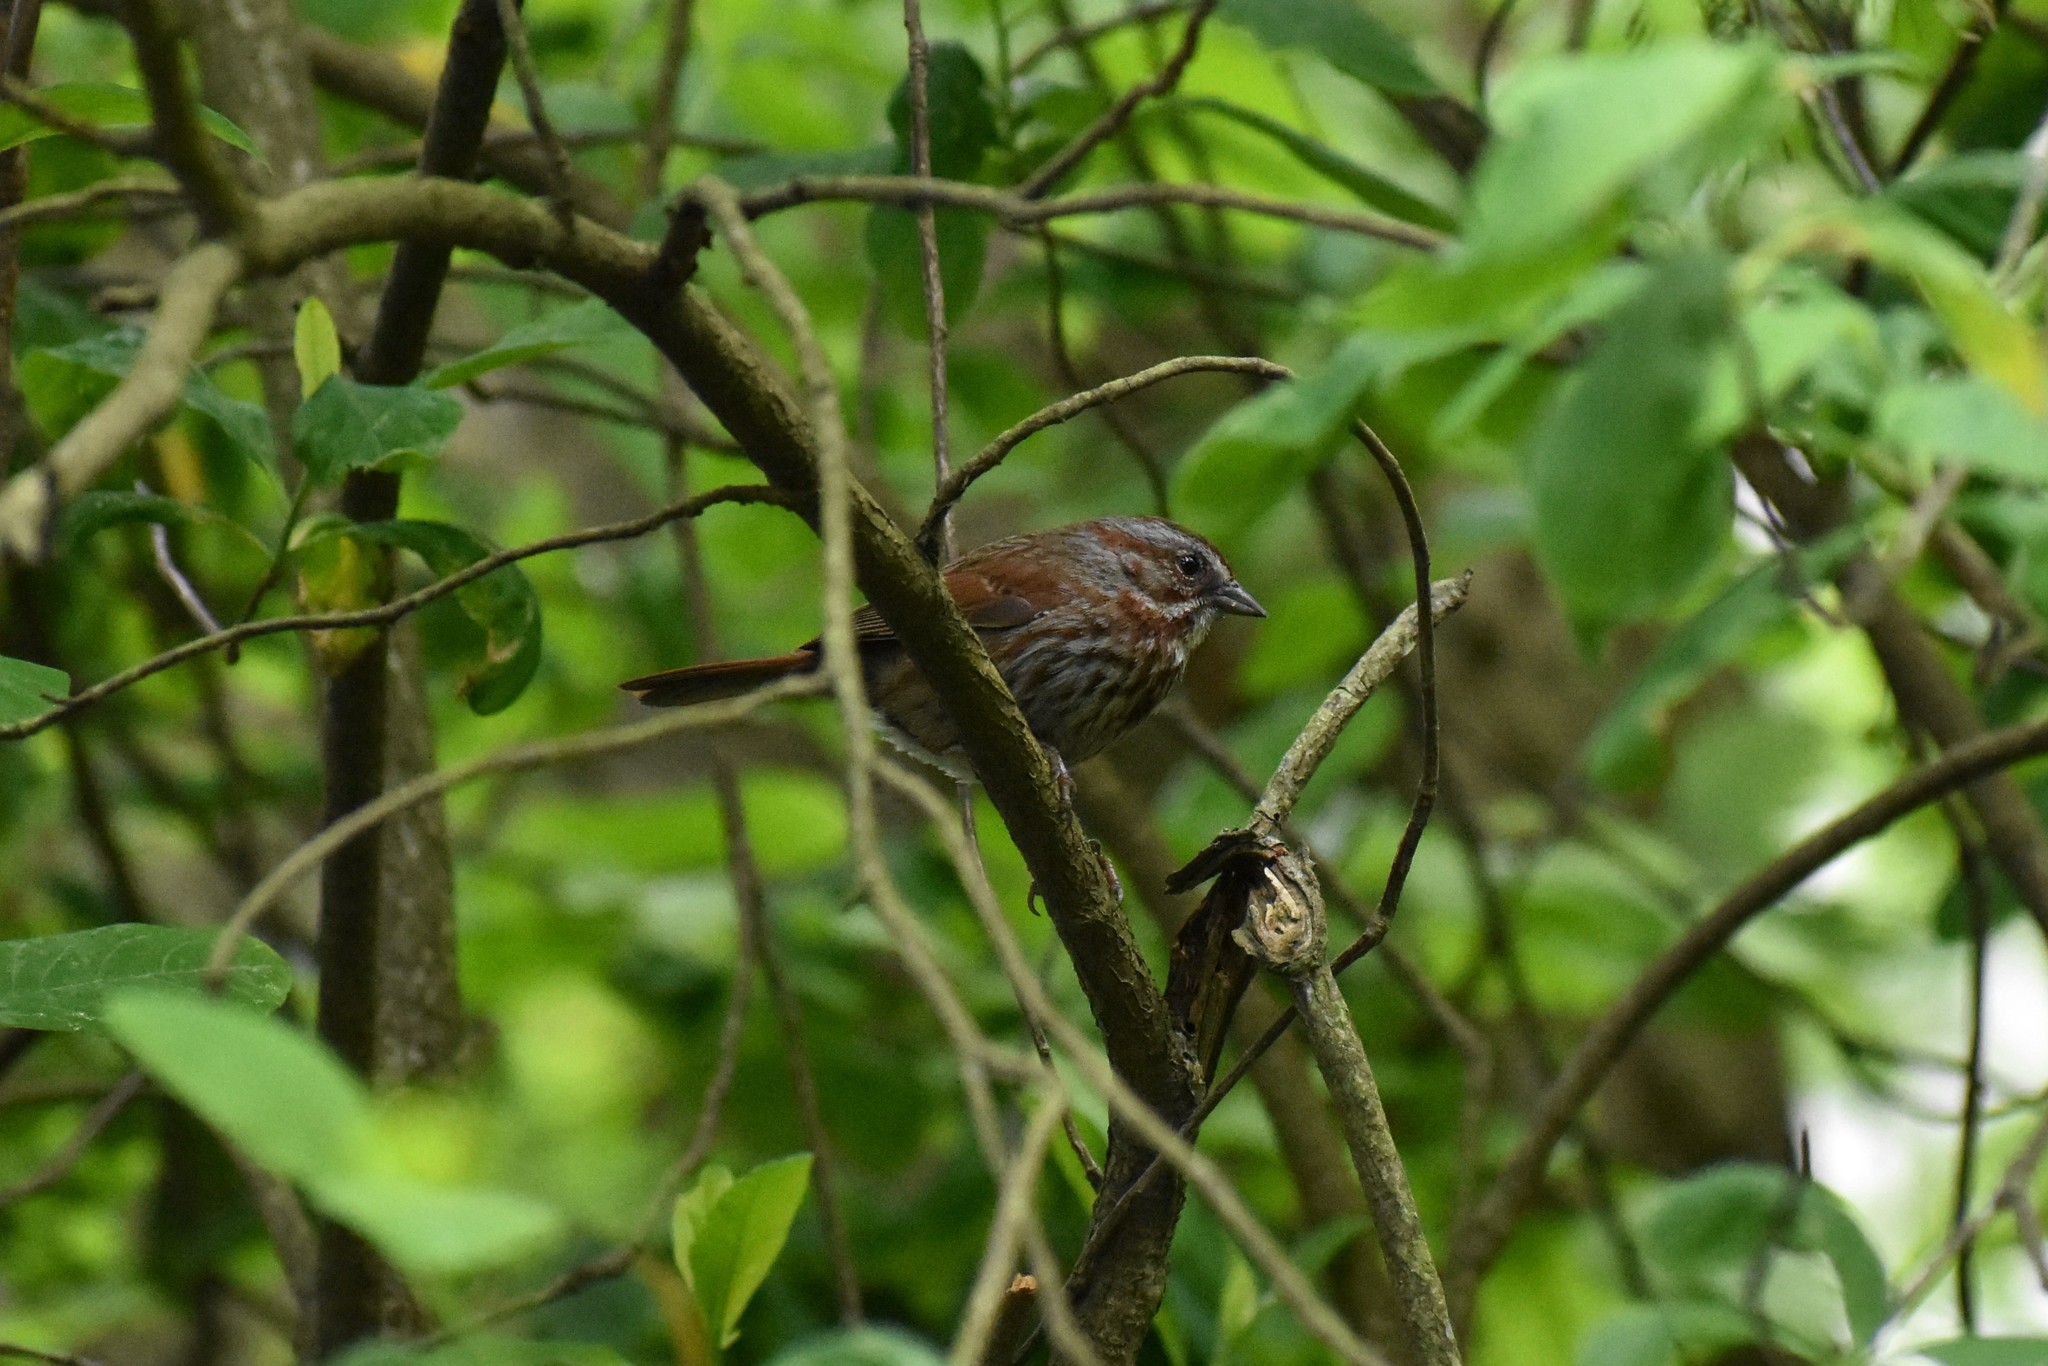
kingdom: Animalia
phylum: Chordata
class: Aves
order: Passeriformes
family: Passerellidae
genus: Melospiza
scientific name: Melospiza melodia
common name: Song sparrow
